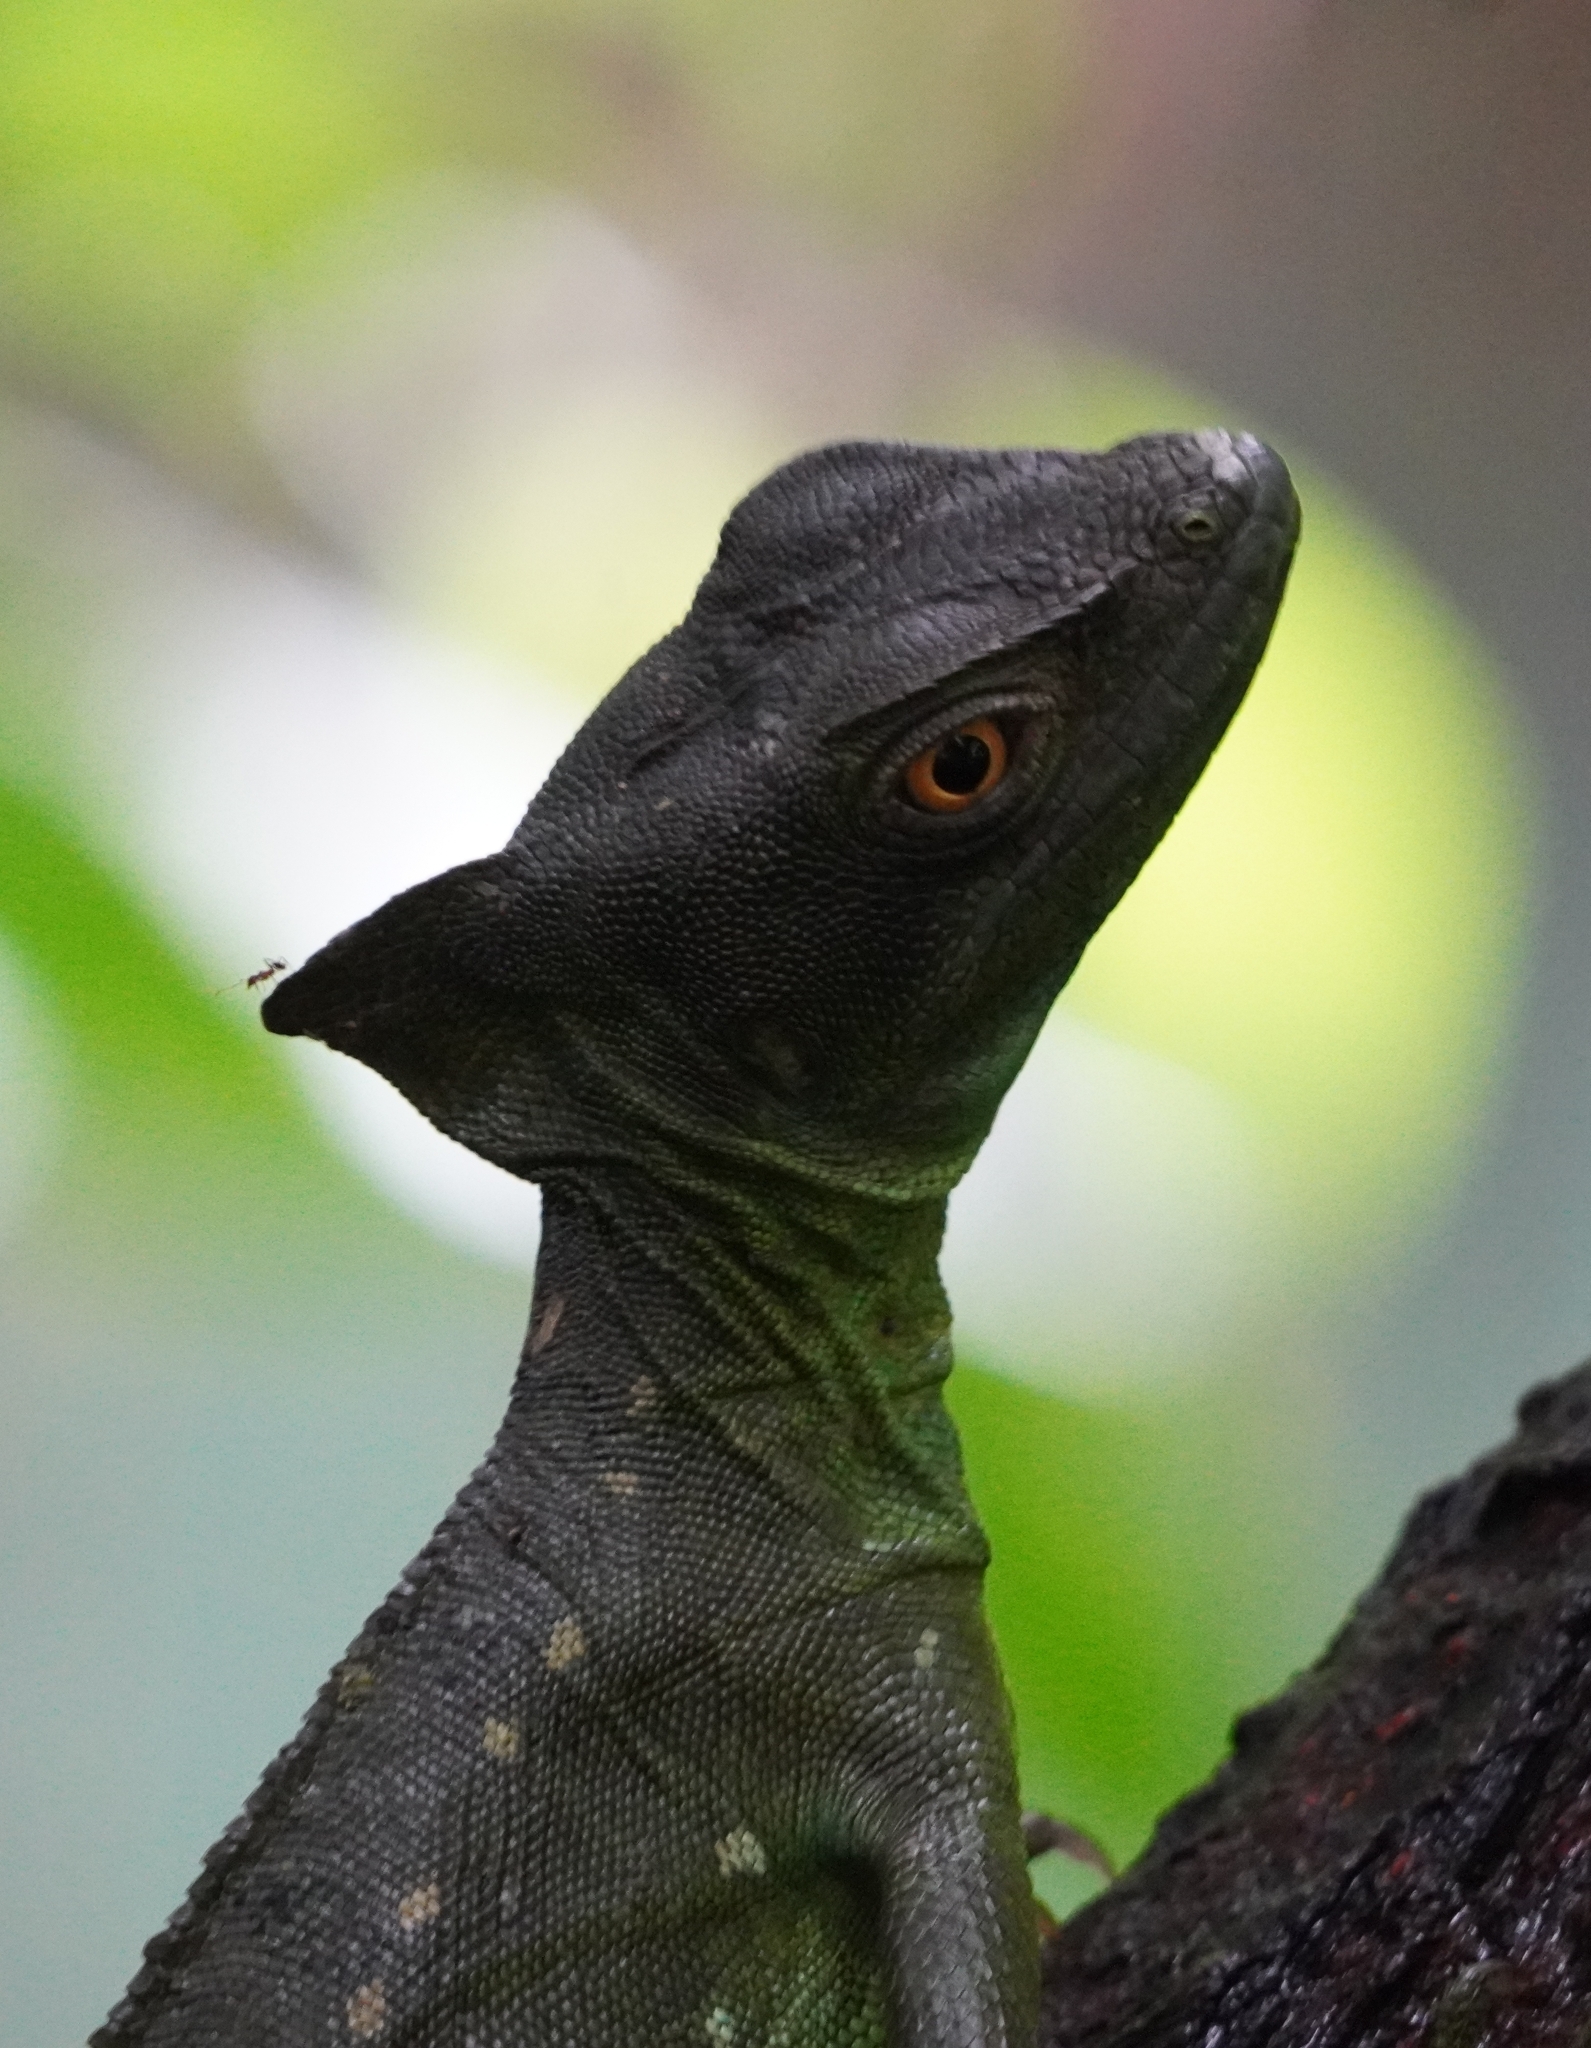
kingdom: Animalia
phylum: Chordata
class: Squamata
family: Corytophanidae
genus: Basiliscus
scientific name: Basiliscus plumifrons
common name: Green basilisk
